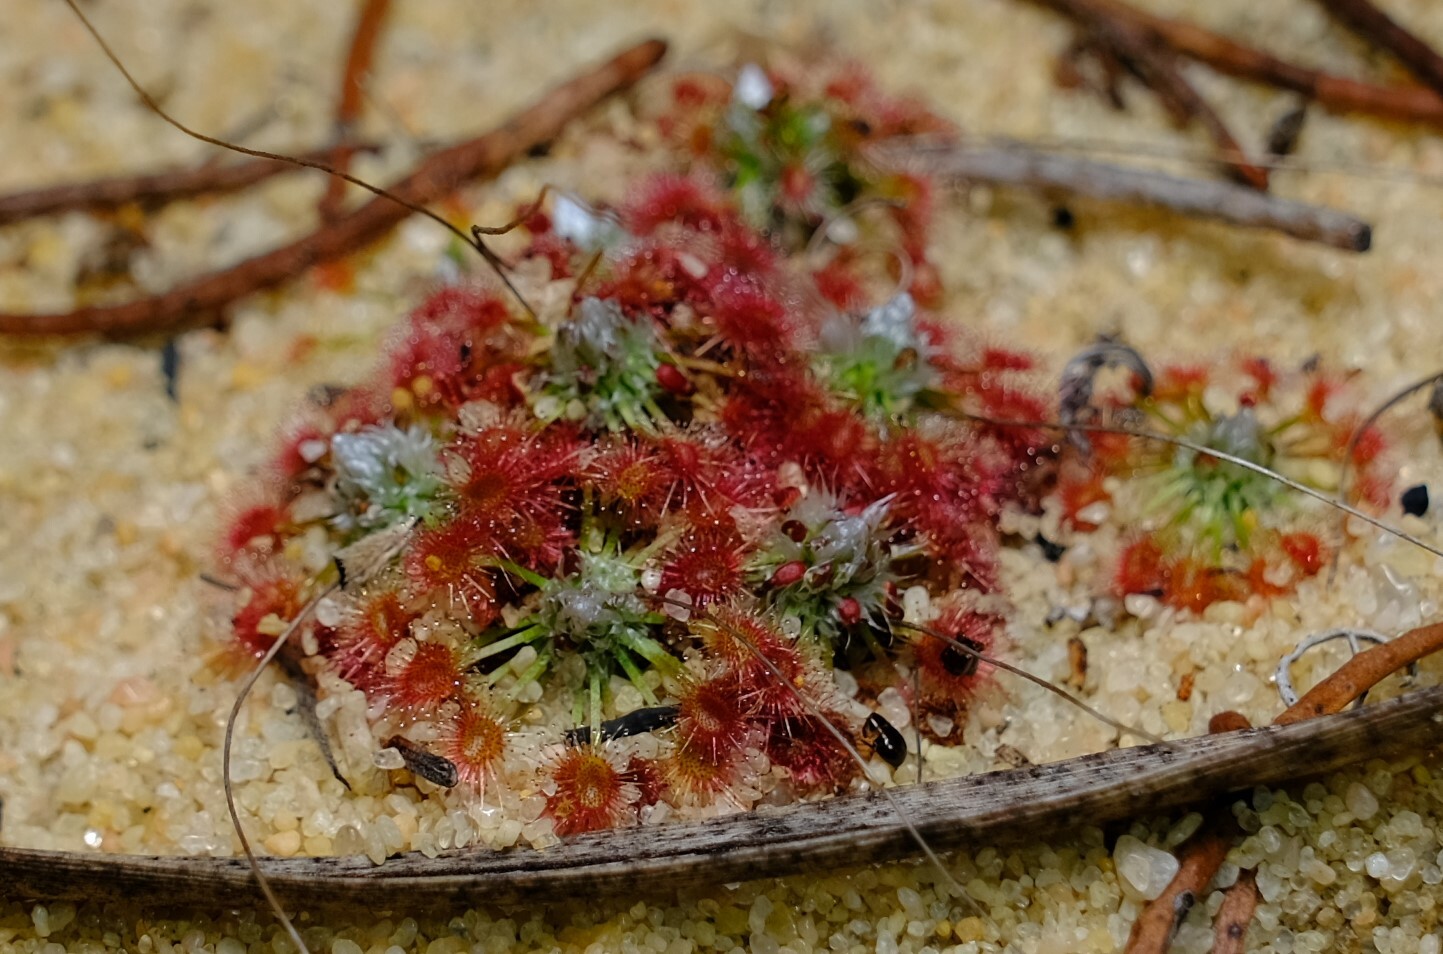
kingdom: Plantae
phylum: Tracheophyta
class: Magnoliopsida
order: Caryophyllales
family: Droseraceae
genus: Drosera
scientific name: Drosera rechingeri
